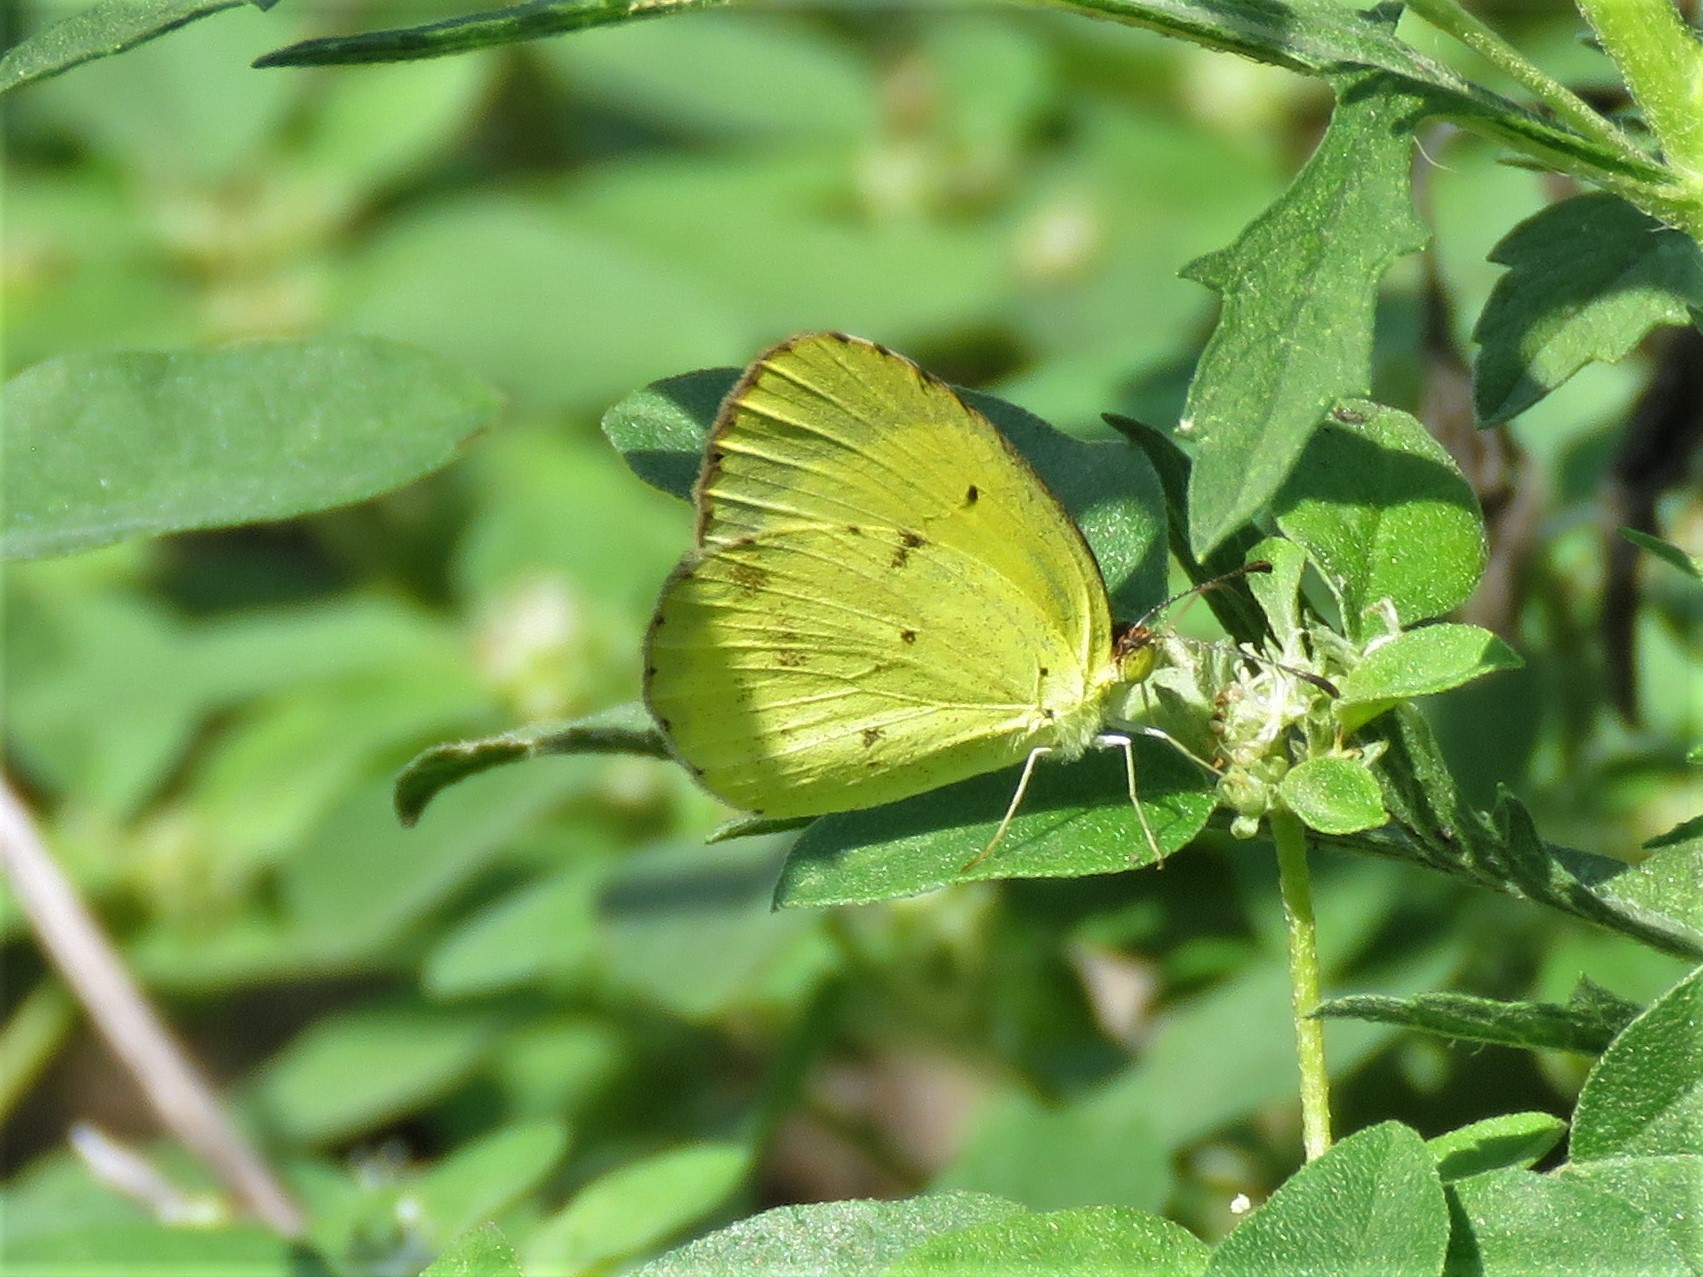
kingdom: Animalia
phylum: Arthropoda
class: Insecta
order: Lepidoptera
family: Pieridae
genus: Pyrisitia
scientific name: Pyrisitia lisa
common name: Little yellow
